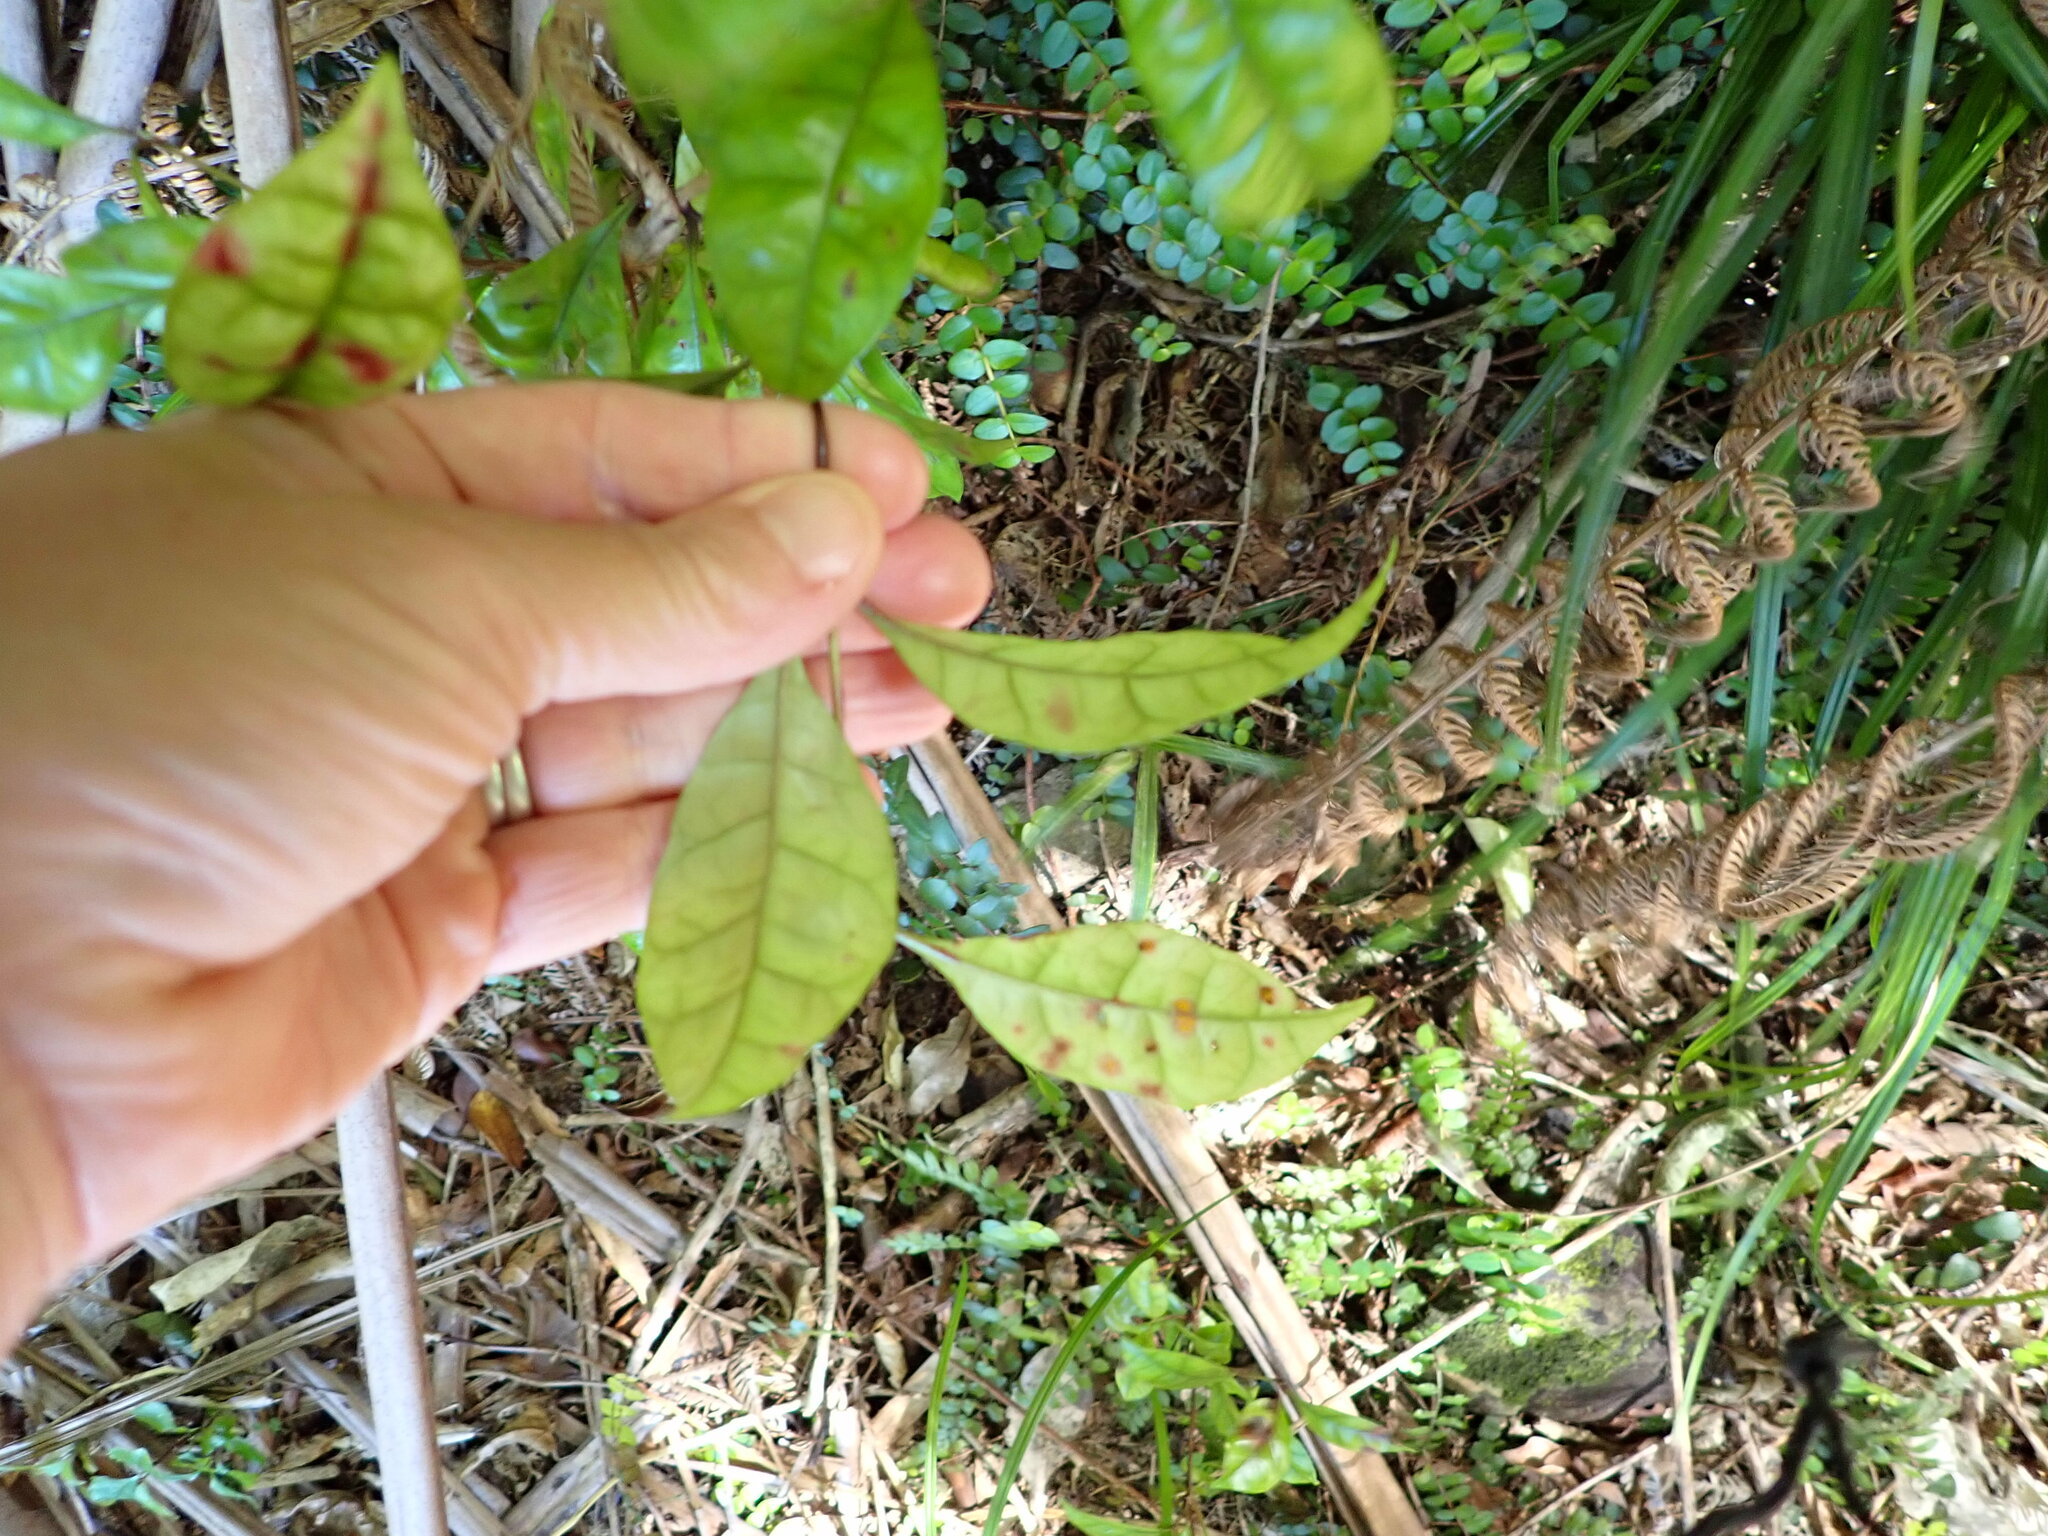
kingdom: Plantae
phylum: Tracheophyta
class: Magnoliopsida
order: Myrtales
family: Myrtaceae
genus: Lophomyrtus
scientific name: Lophomyrtus bullata
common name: Rama rama
